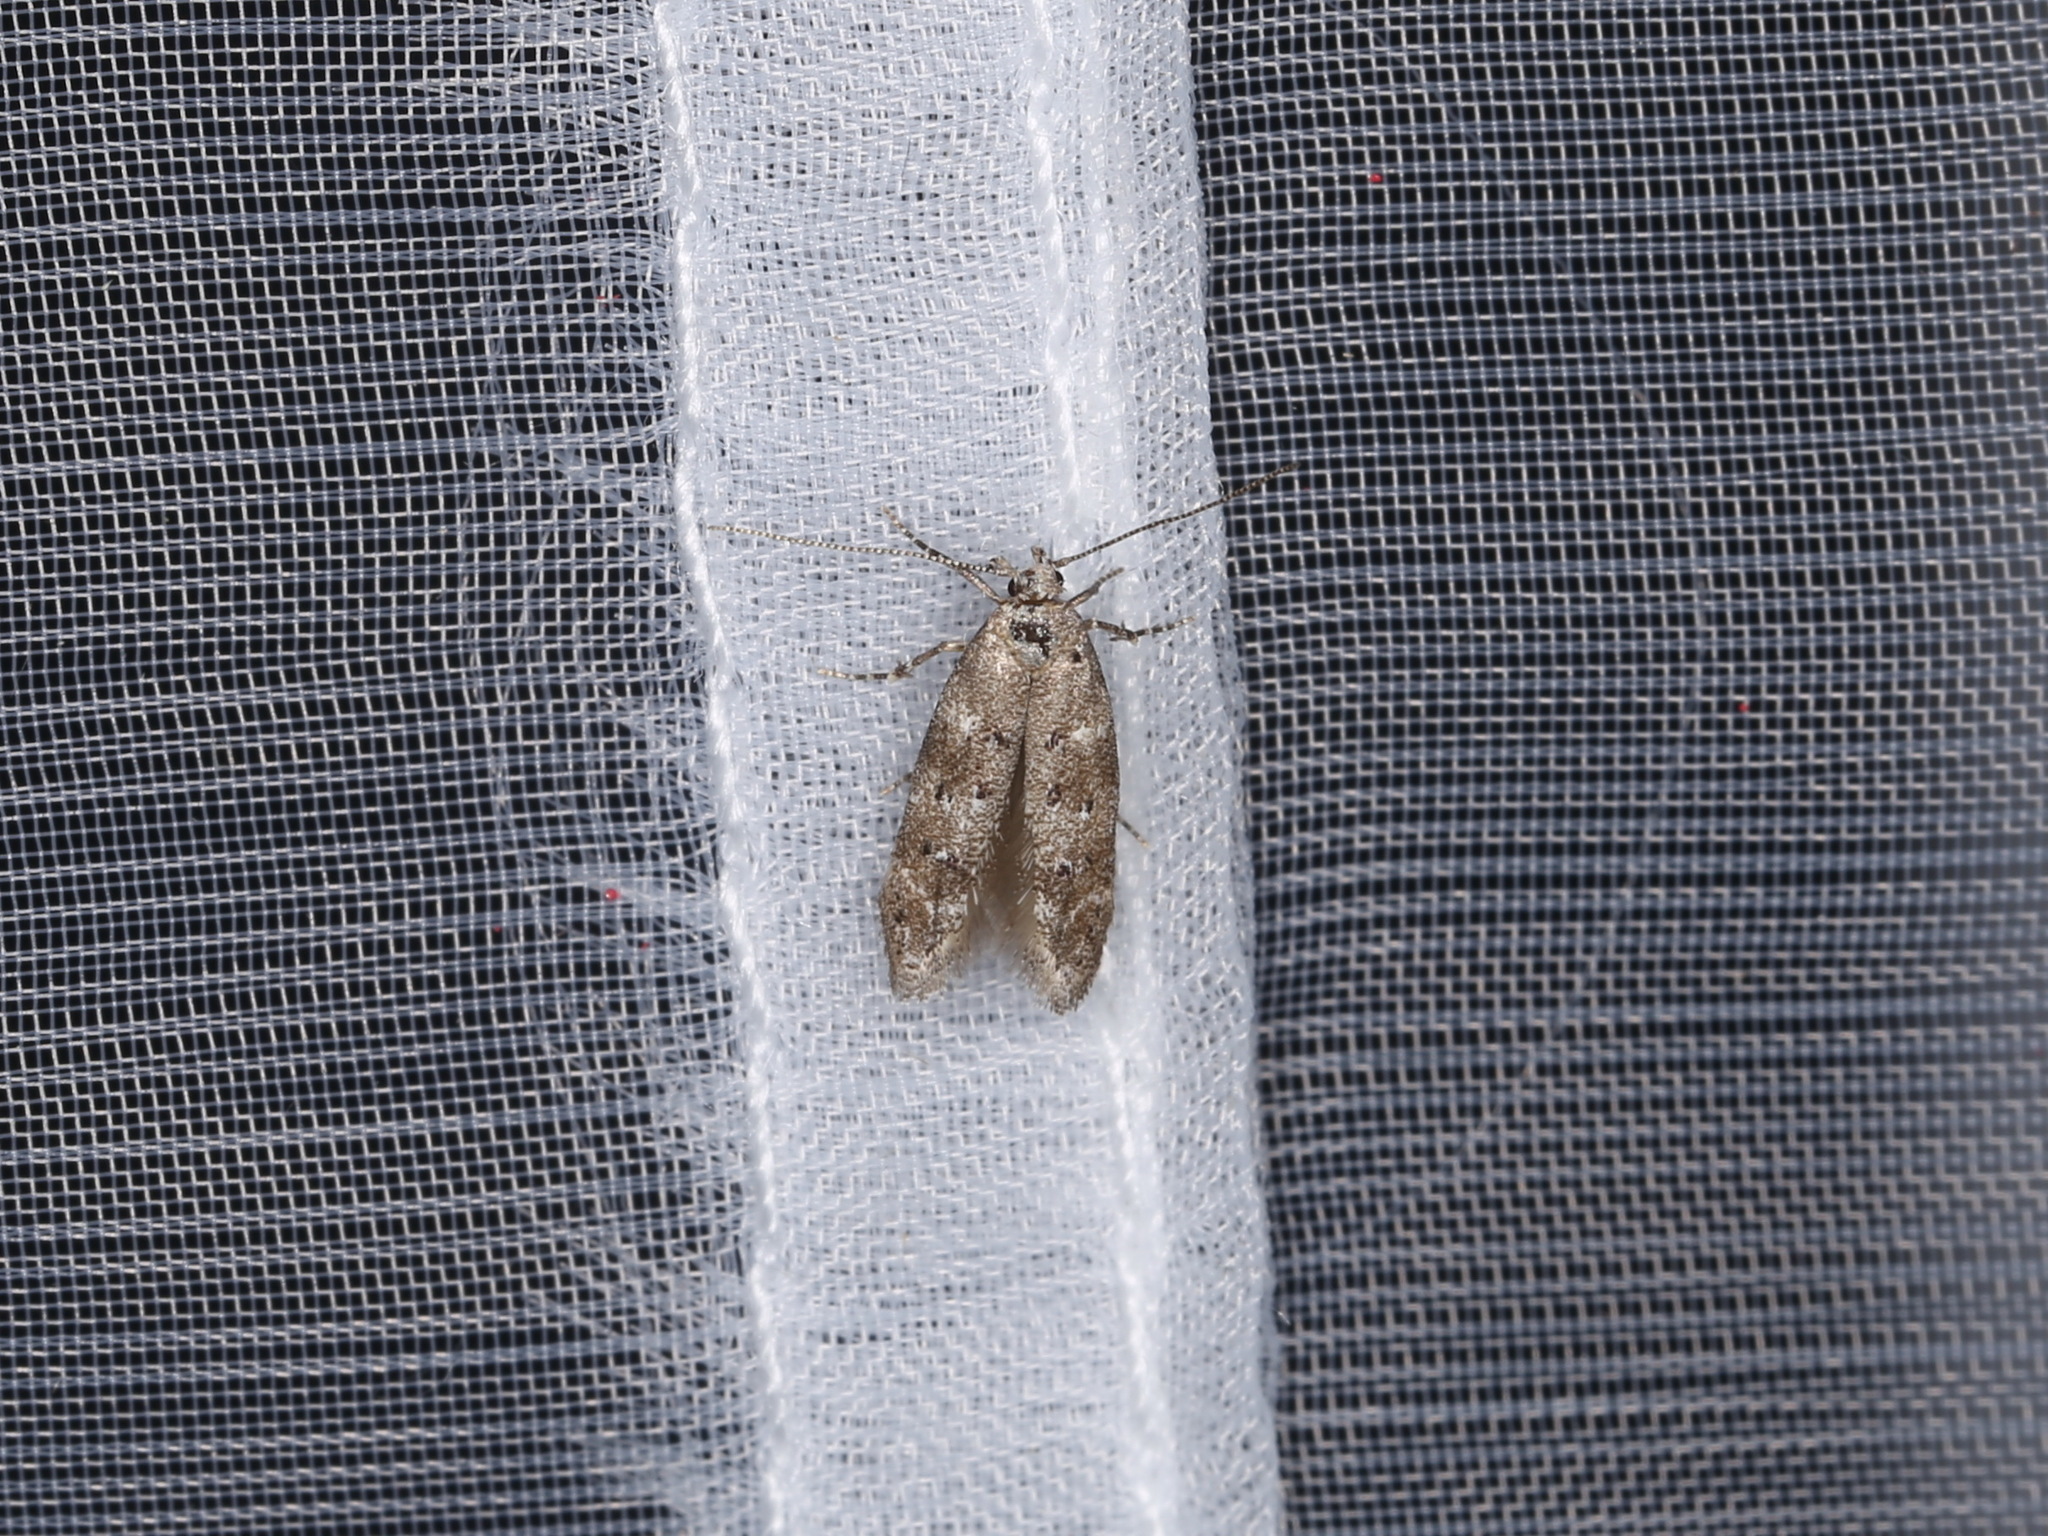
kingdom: Animalia
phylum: Arthropoda
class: Insecta
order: Lepidoptera
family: Gelechiidae
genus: Exoteleia
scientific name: Exoteleia dodecella
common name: Pine bud moth
